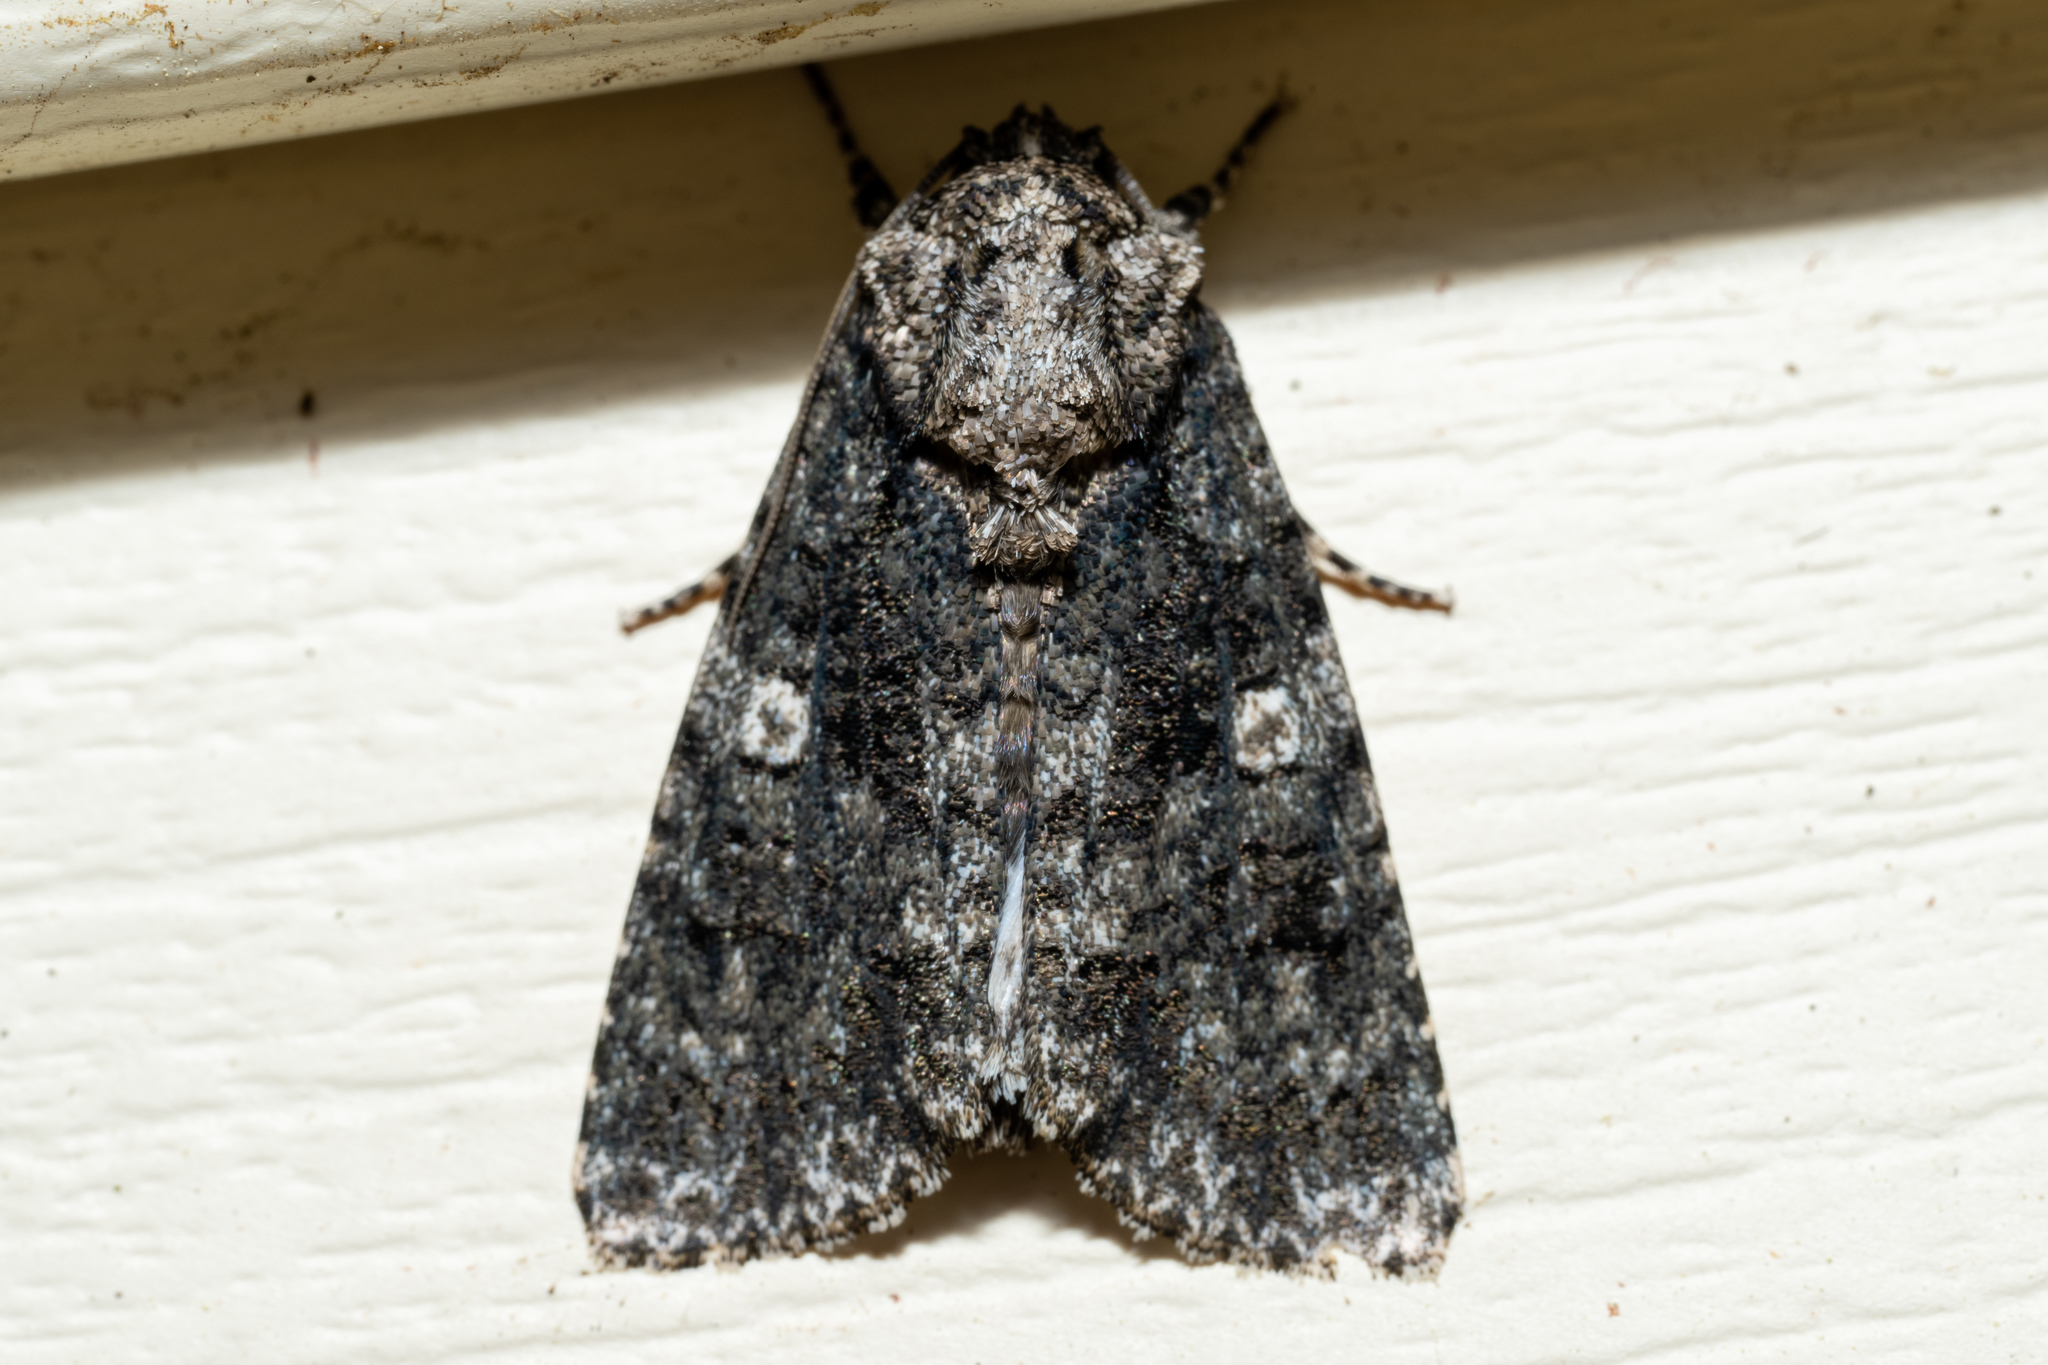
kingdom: Animalia
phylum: Arthropoda
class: Insecta
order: Lepidoptera
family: Noctuidae
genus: Acronicta
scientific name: Acronicta afflicta
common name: Afflicted dagger moth
